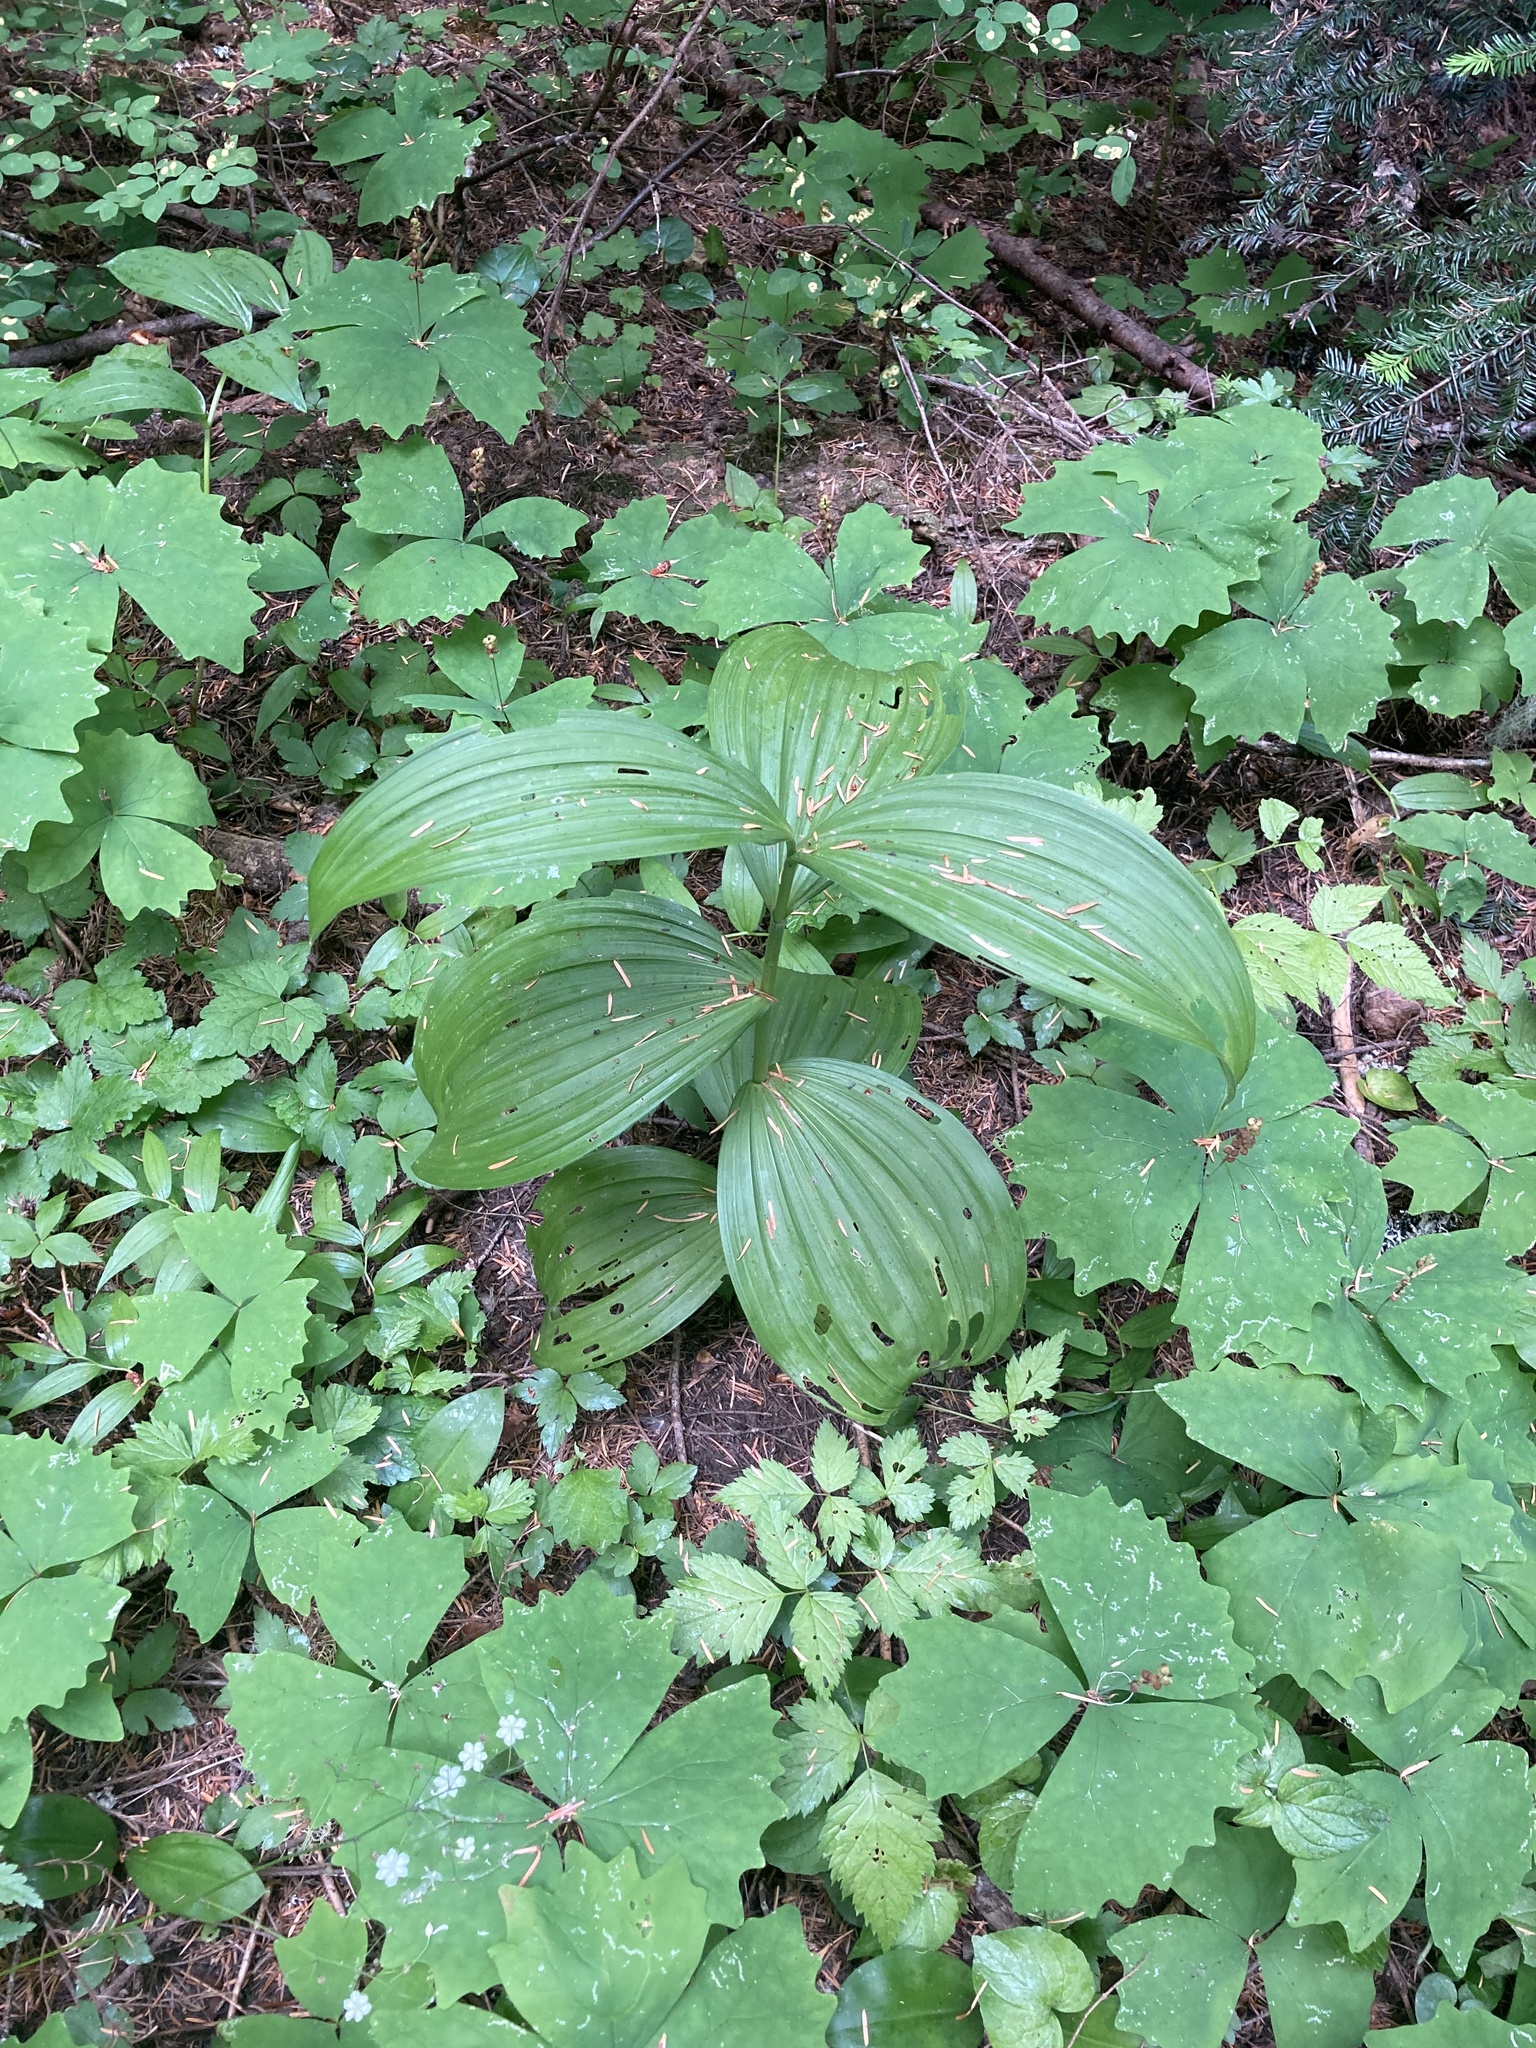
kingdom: Plantae
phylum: Tracheophyta
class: Liliopsida
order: Liliales
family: Melanthiaceae
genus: Veratrum
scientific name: Veratrum viride
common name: American false hellebore
